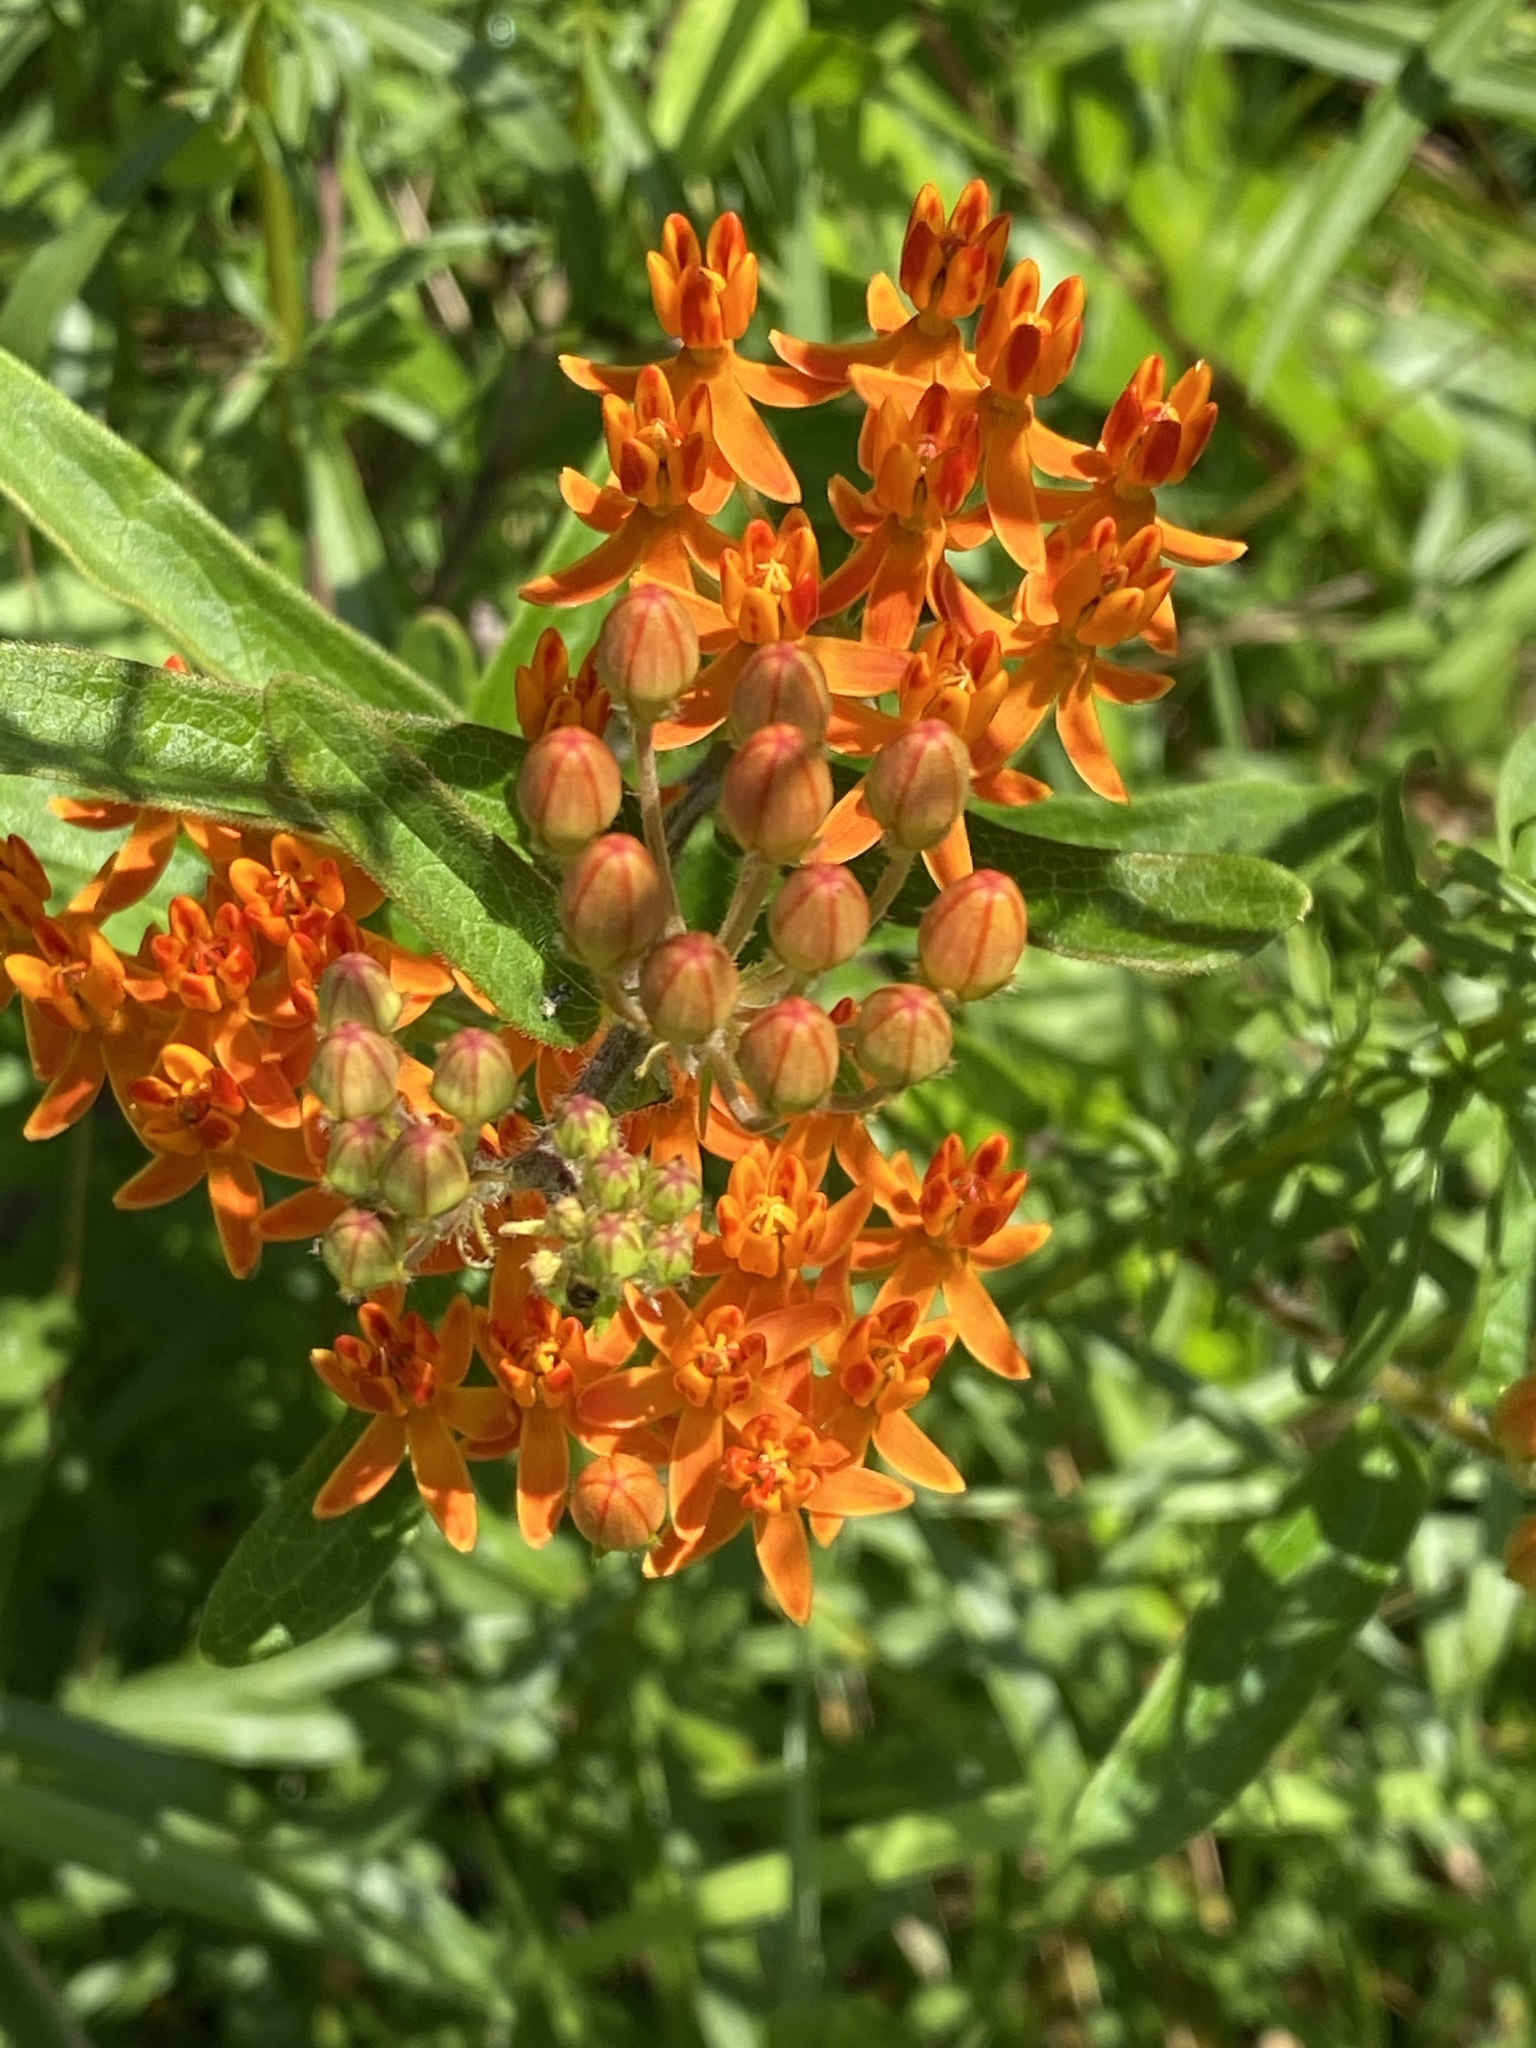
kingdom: Plantae
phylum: Tracheophyta
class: Magnoliopsida
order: Gentianales
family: Apocynaceae
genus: Asclepias
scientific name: Asclepias tuberosa
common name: Butterfly milkweed
